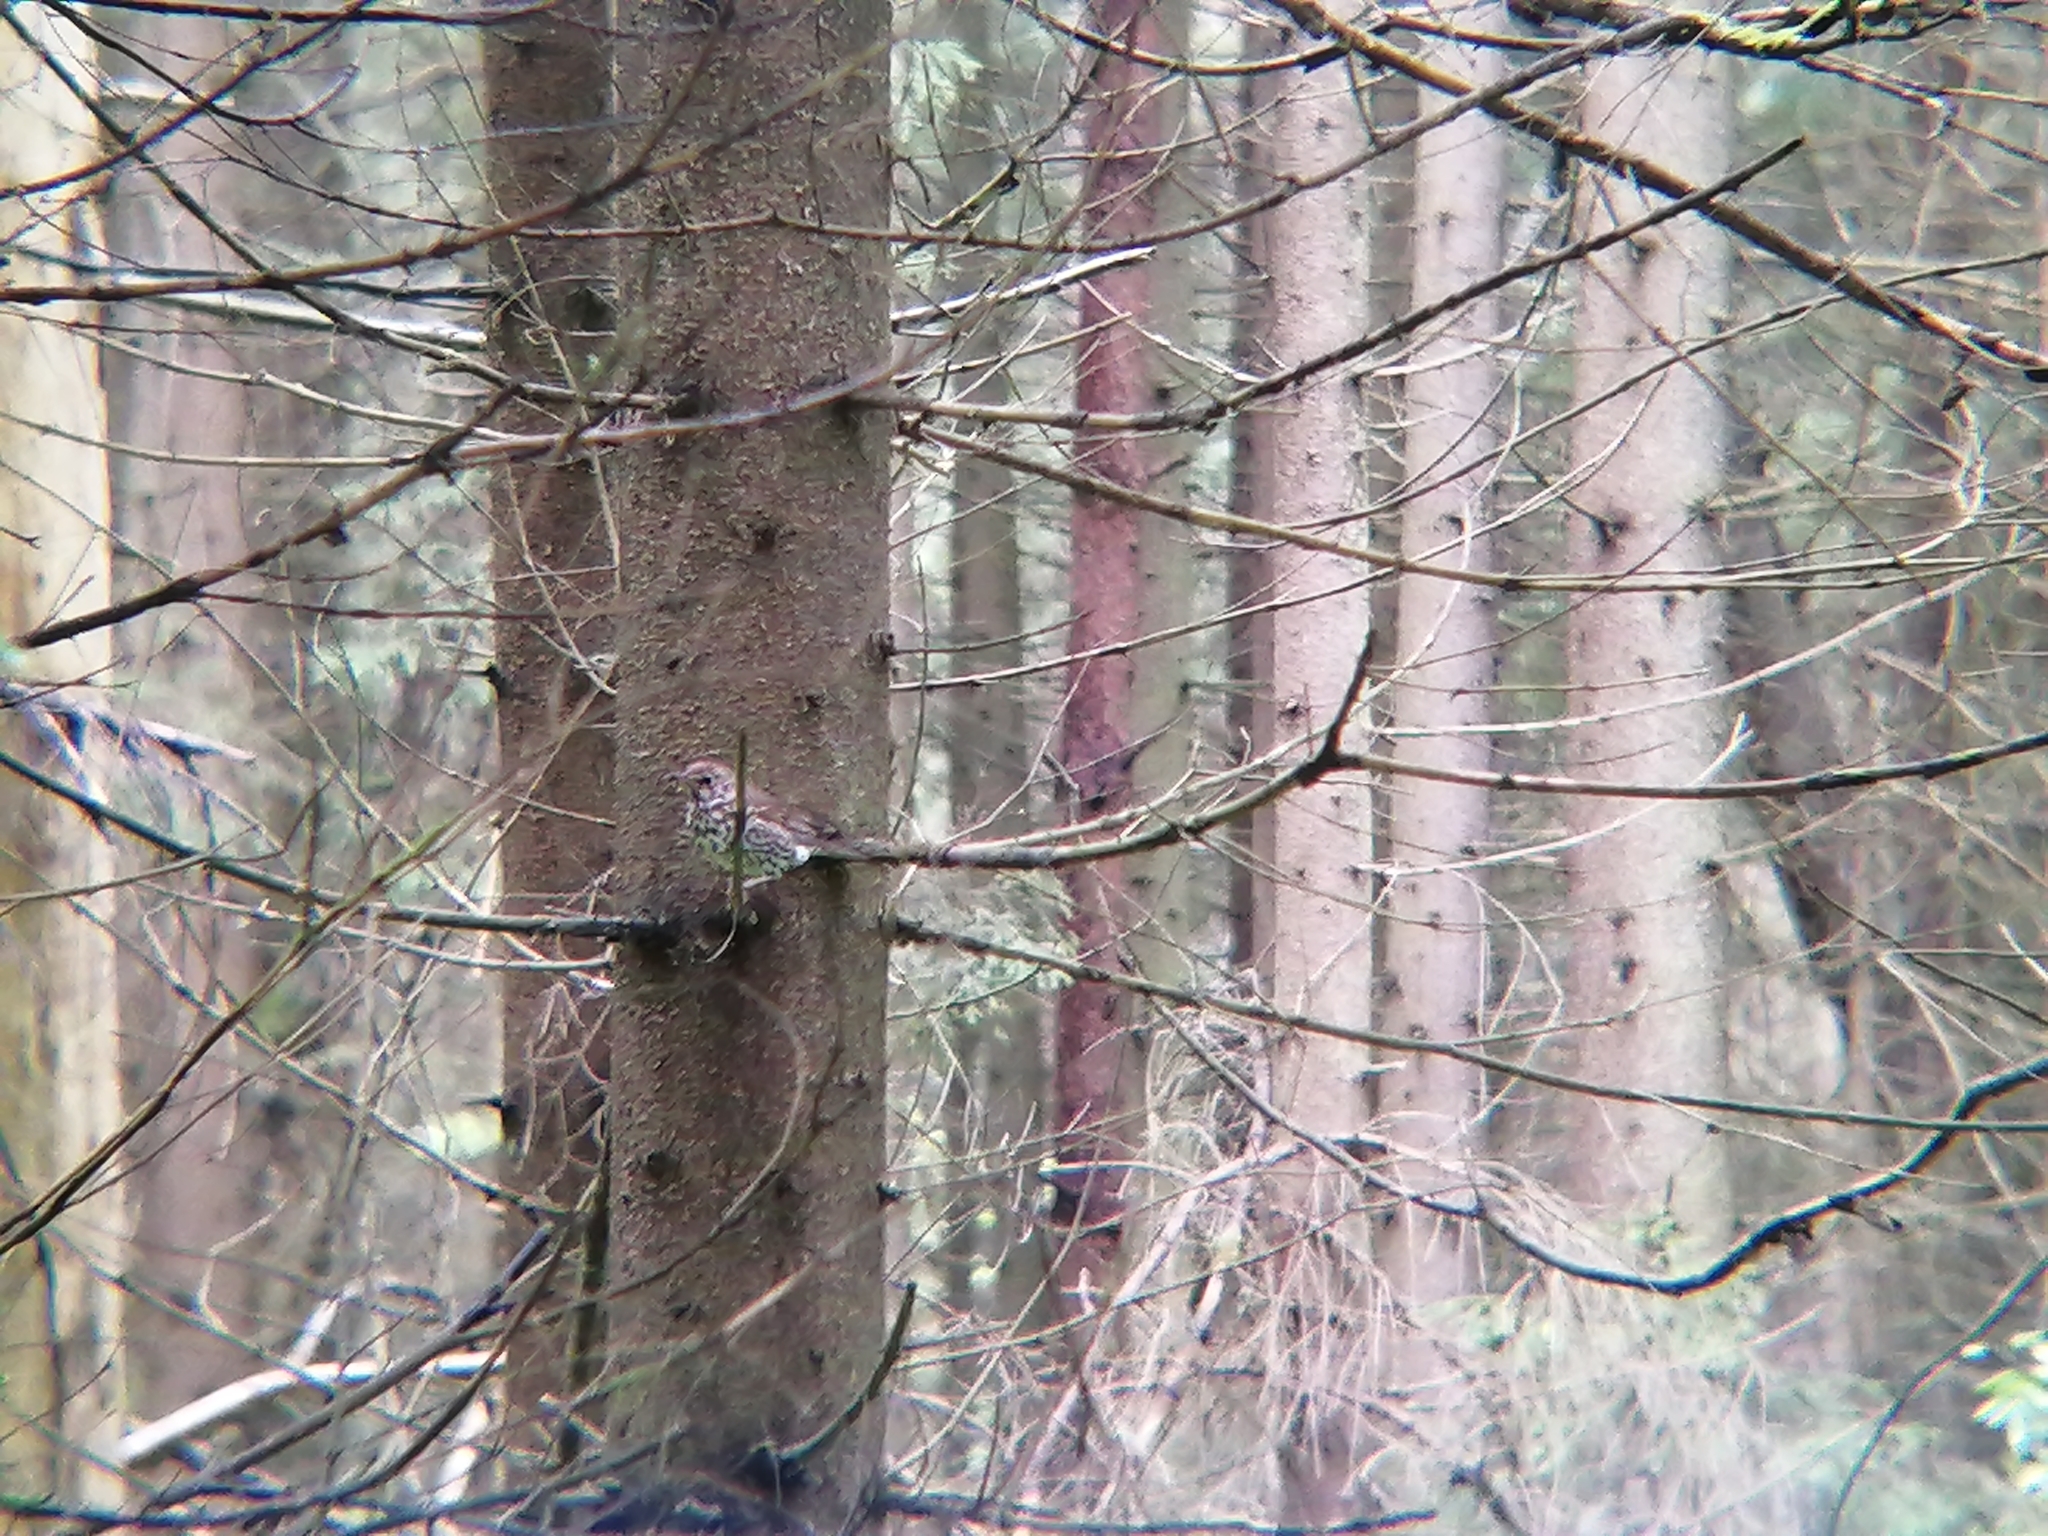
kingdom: Animalia
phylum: Chordata
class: Aves
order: Passeriformes
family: Turdidae
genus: Turdus
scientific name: Turdus philomelos
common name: Song thrush
